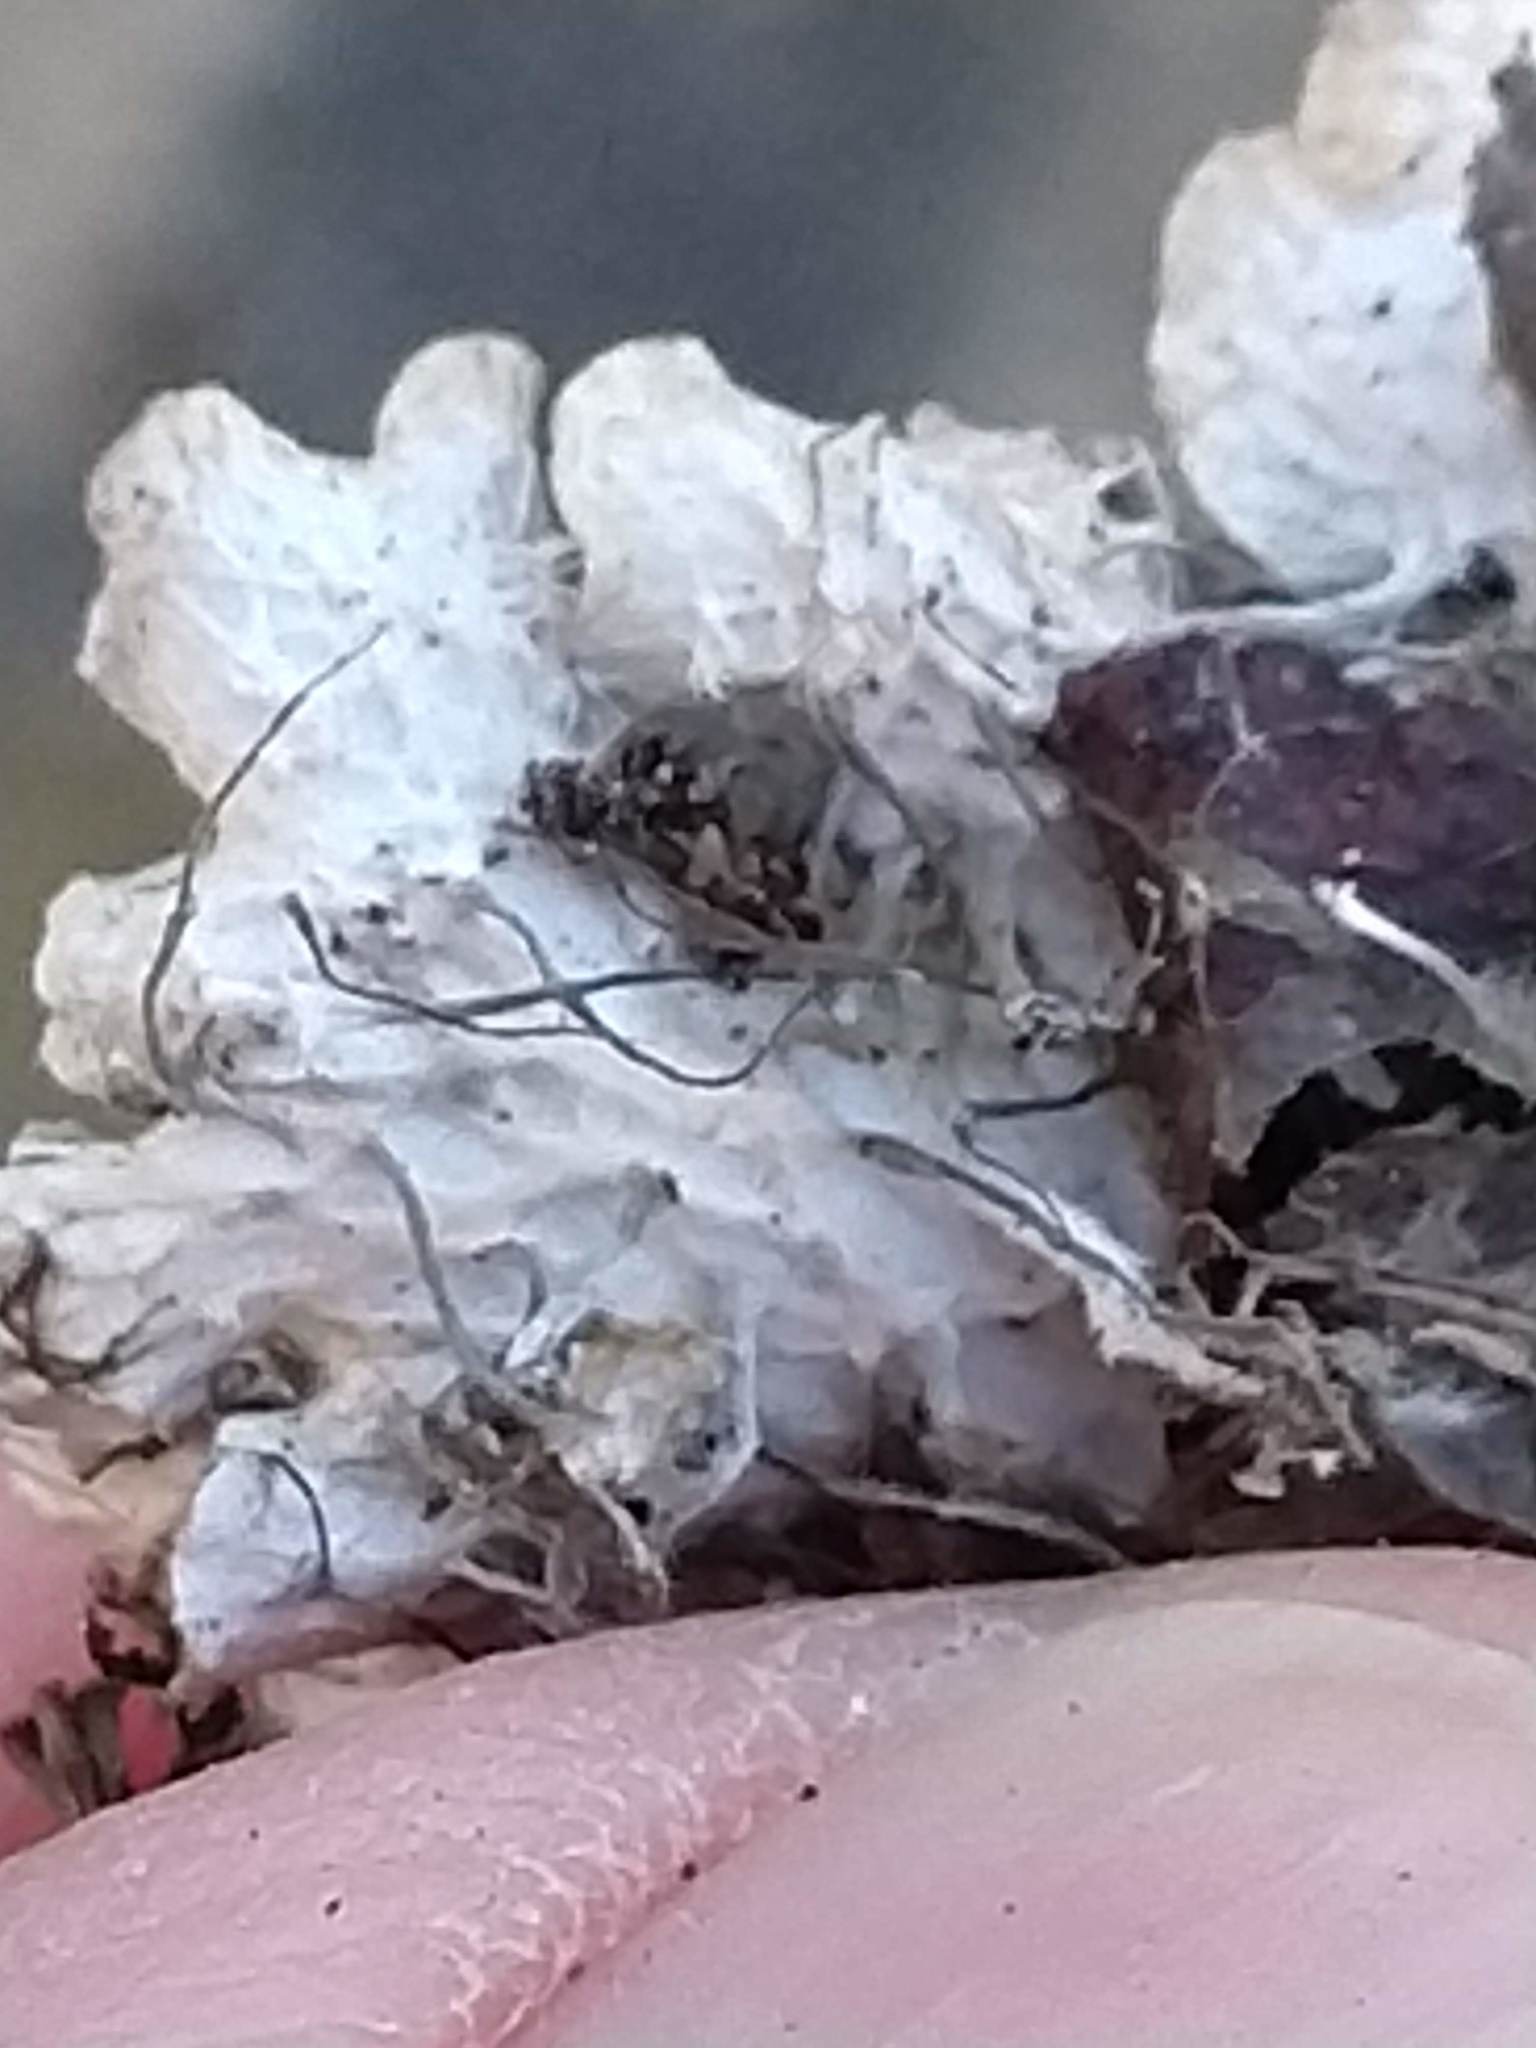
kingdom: Fungi
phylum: Ascomycota
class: Lecanoromycetes
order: Peltigerales
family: Peltigeraceae
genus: Peltigera
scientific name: Peltigera ponojensis
